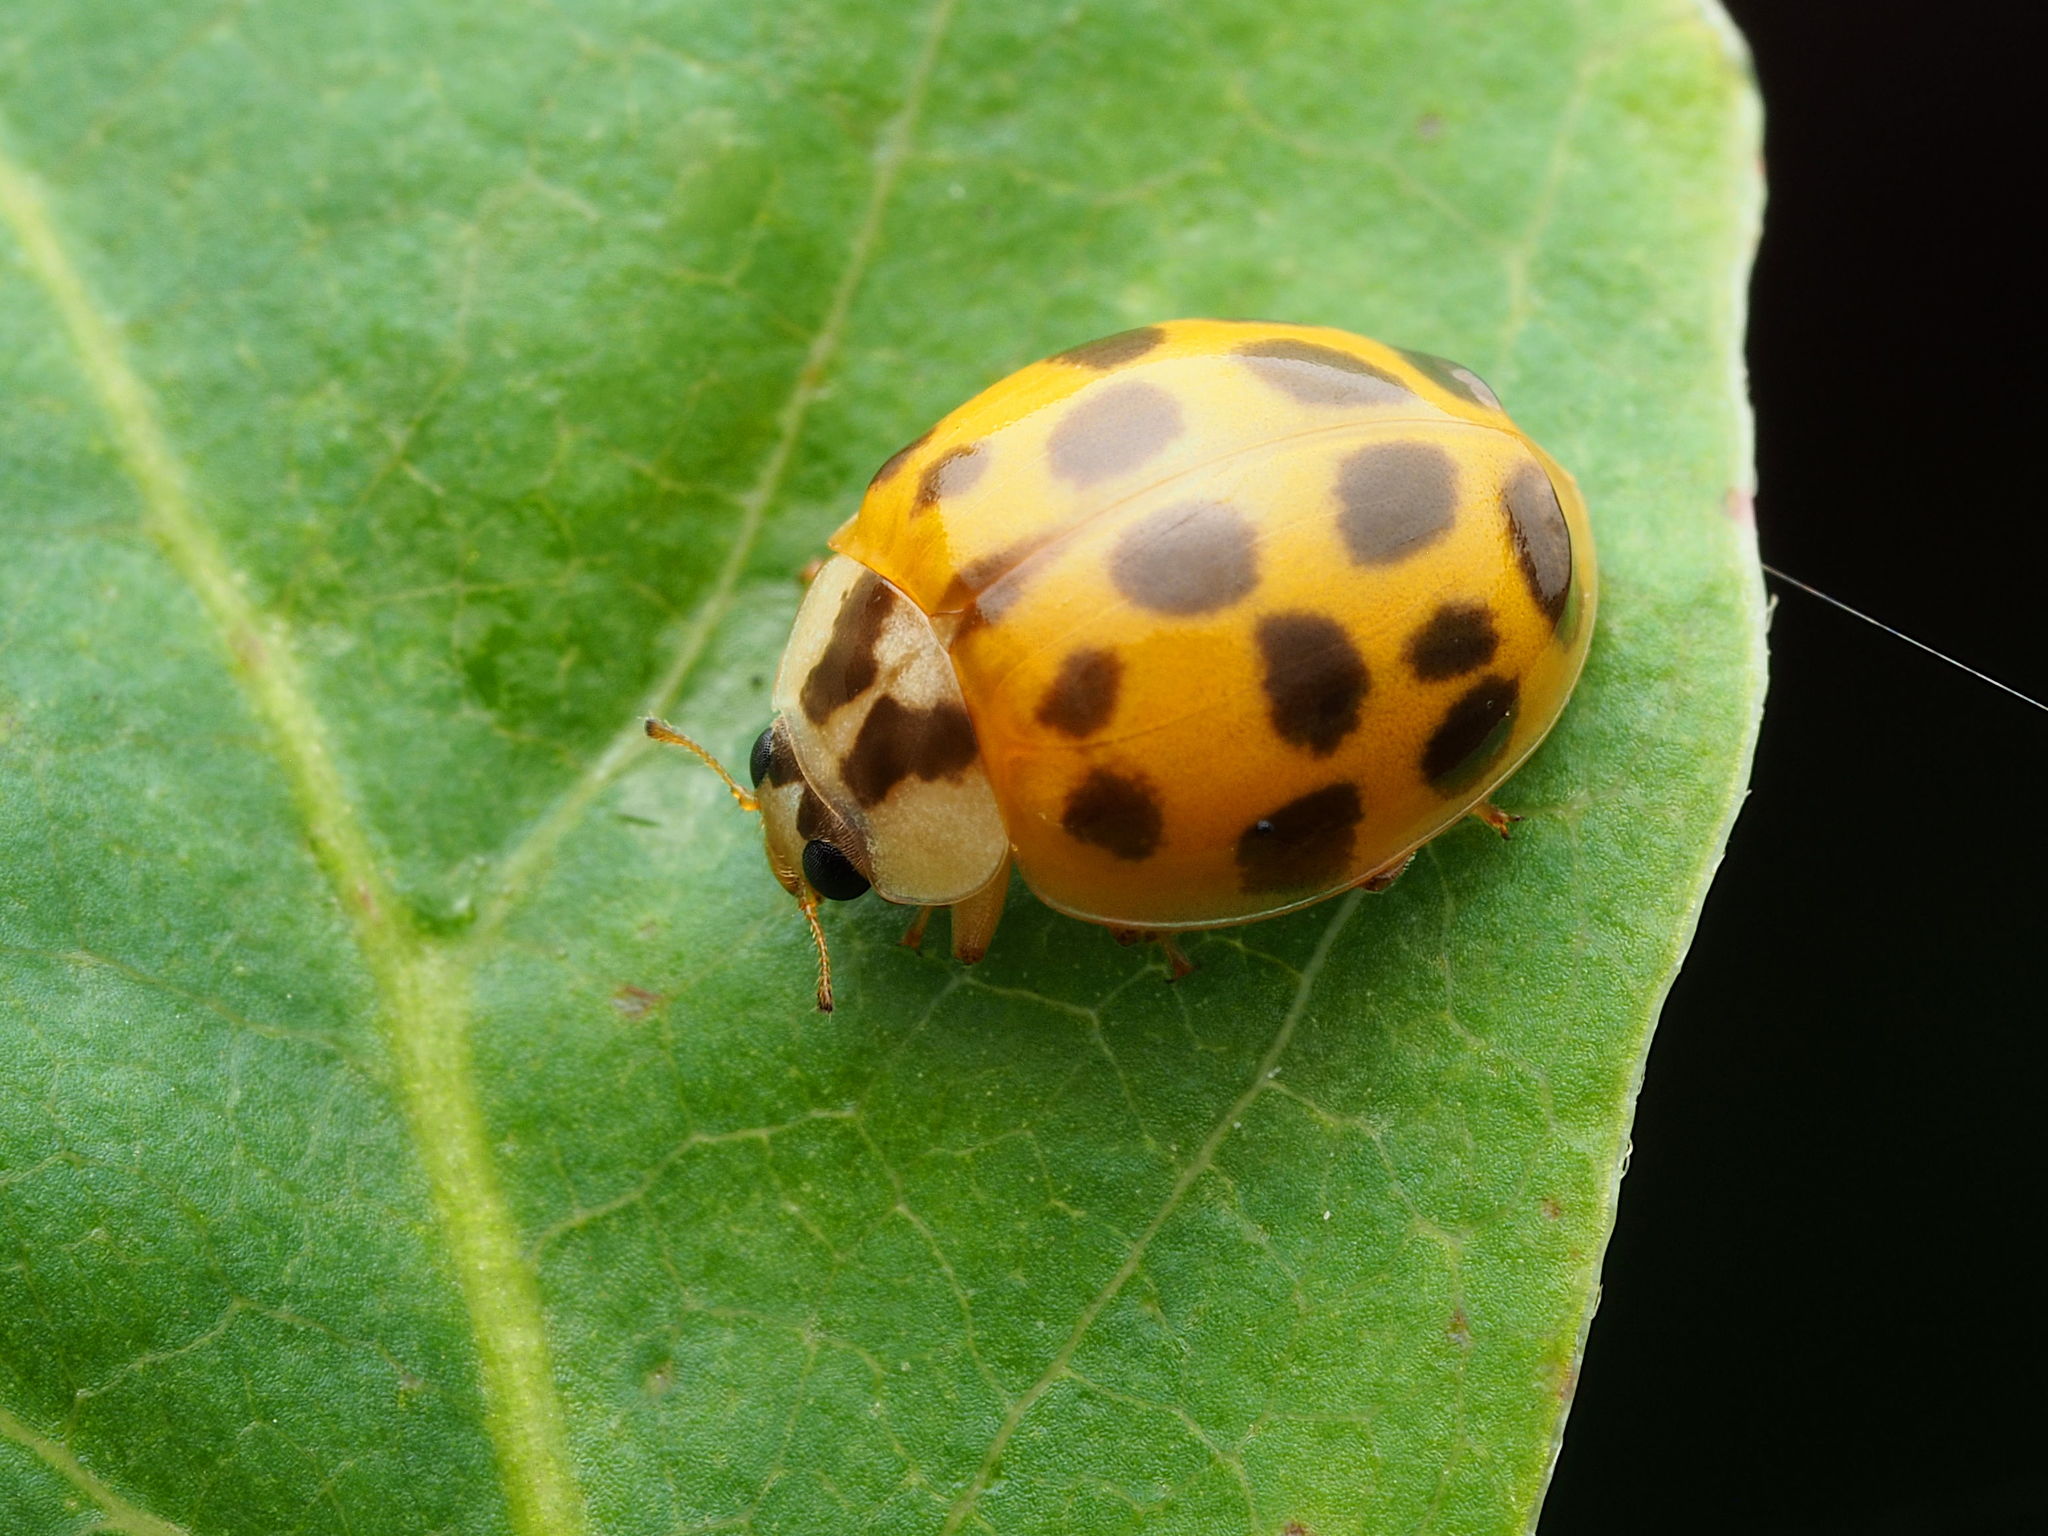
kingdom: Animalia
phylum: Arthropoda
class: Insecta
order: Coleoptera
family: Coccinellidae
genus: Harmonia
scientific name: Harmonia axyridis
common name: Harlequin ladybird
